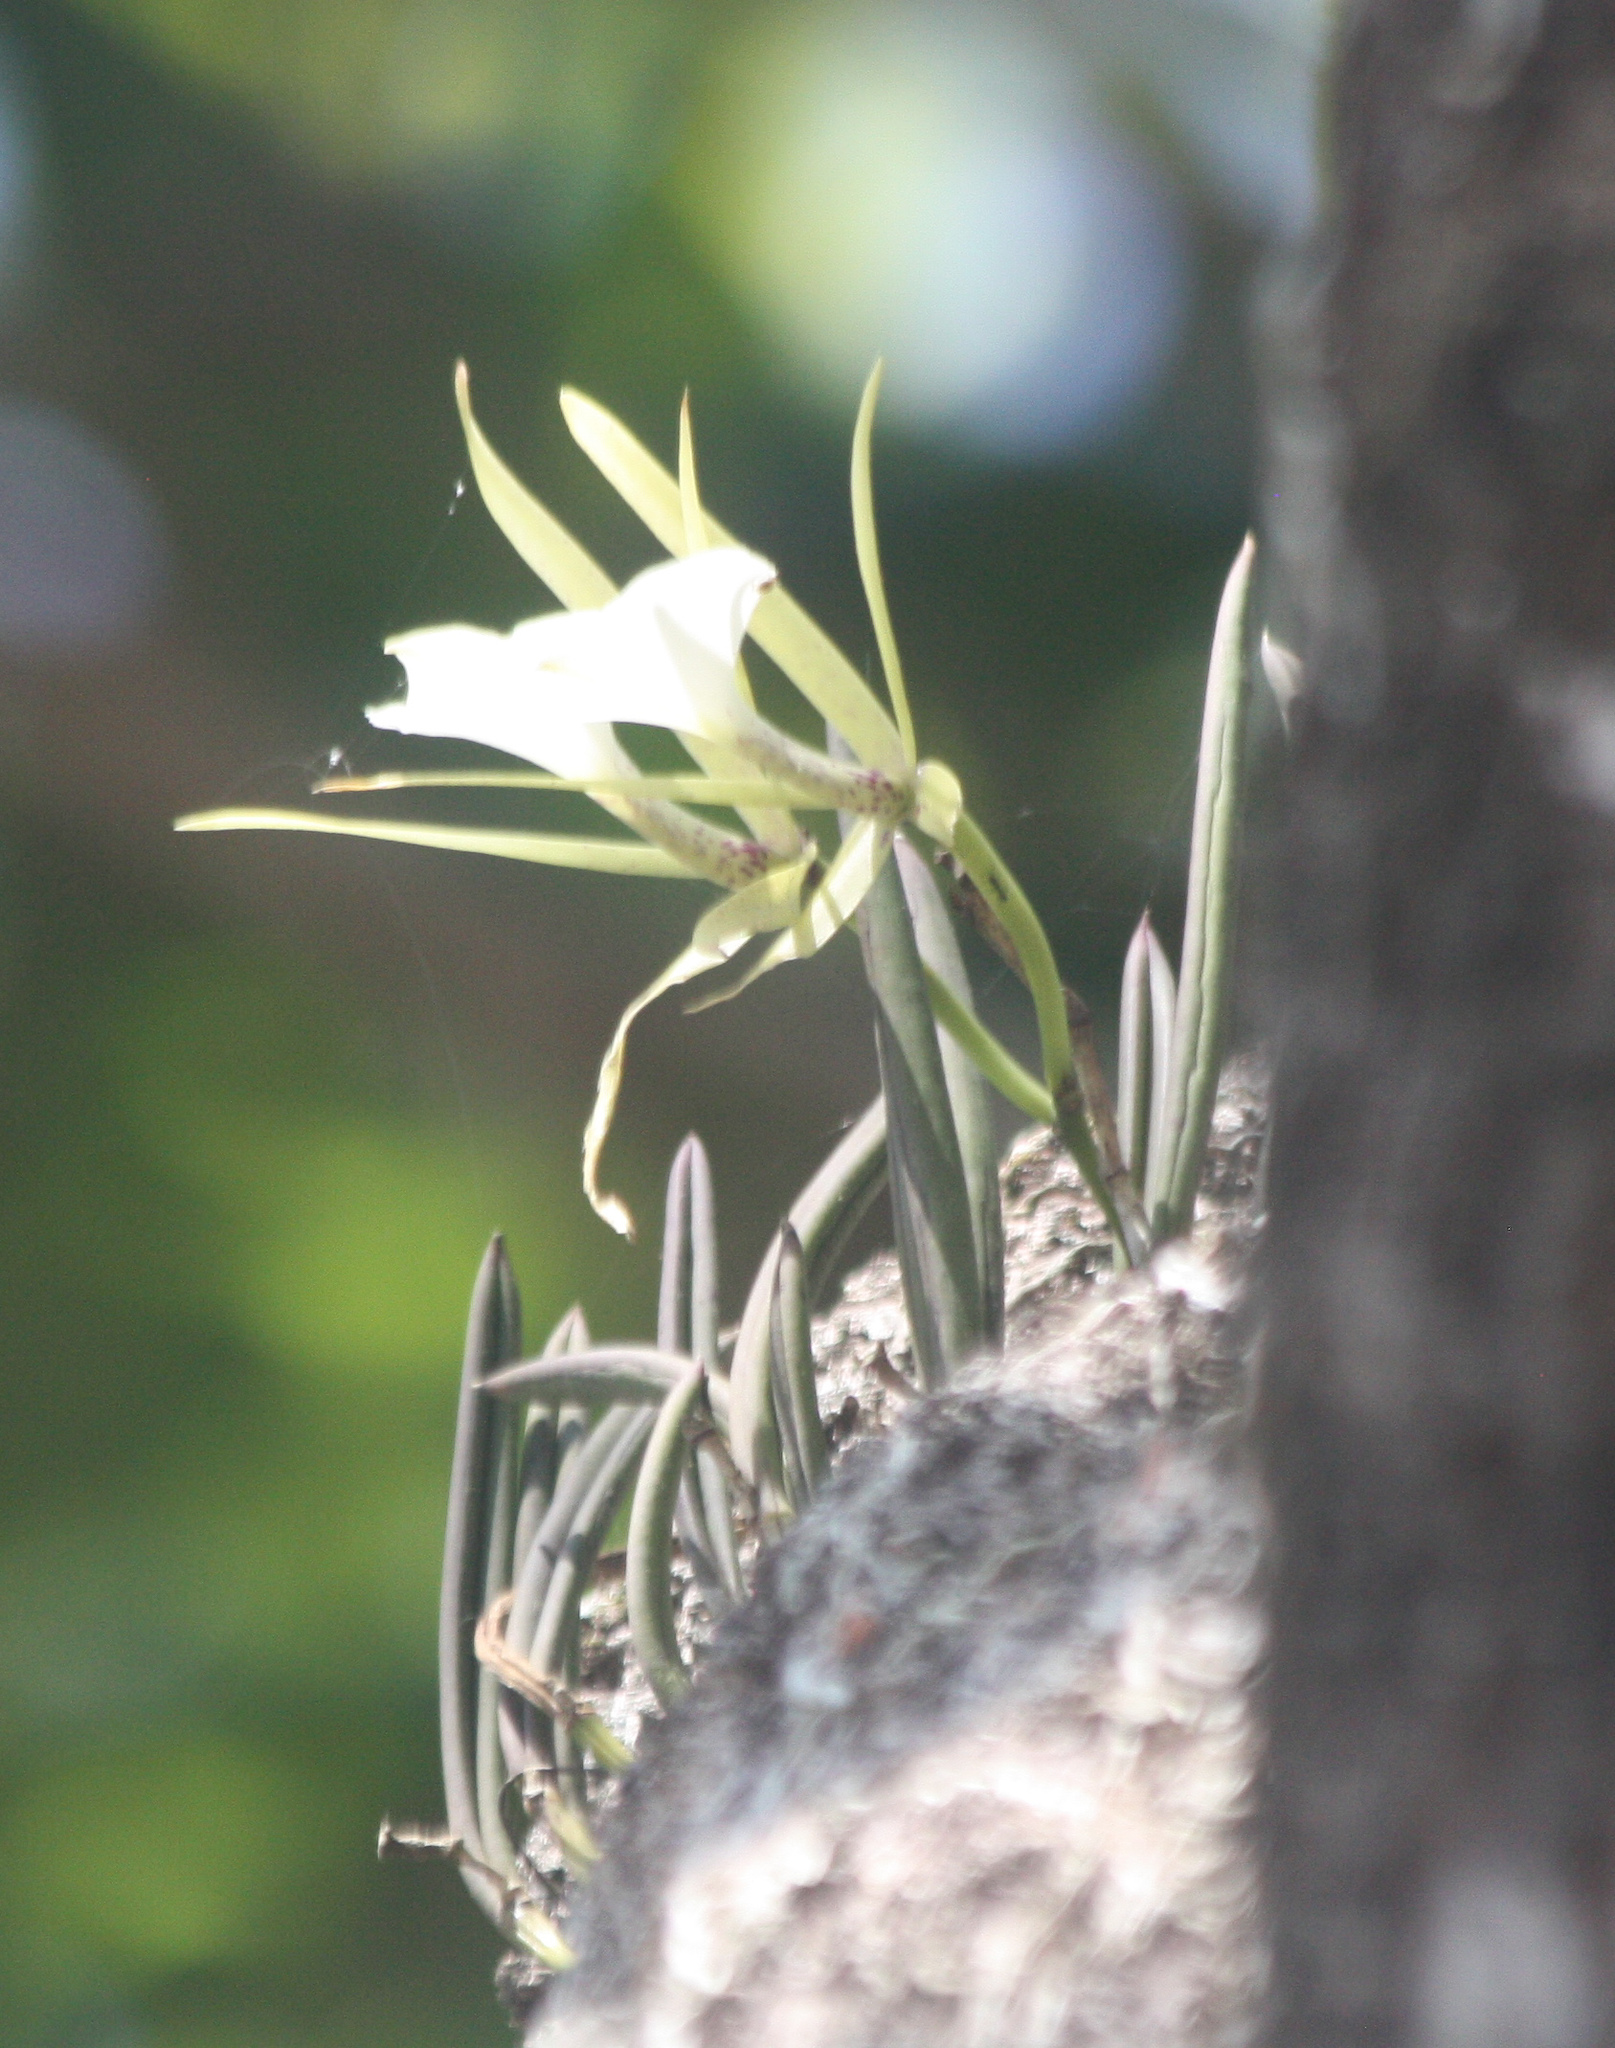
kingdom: Plantae
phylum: Tracheophyta
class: Liliopsida
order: Asparagales
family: Orchidaceae
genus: Brassavola
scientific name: Brassavola nodosa
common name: Lady of the night
